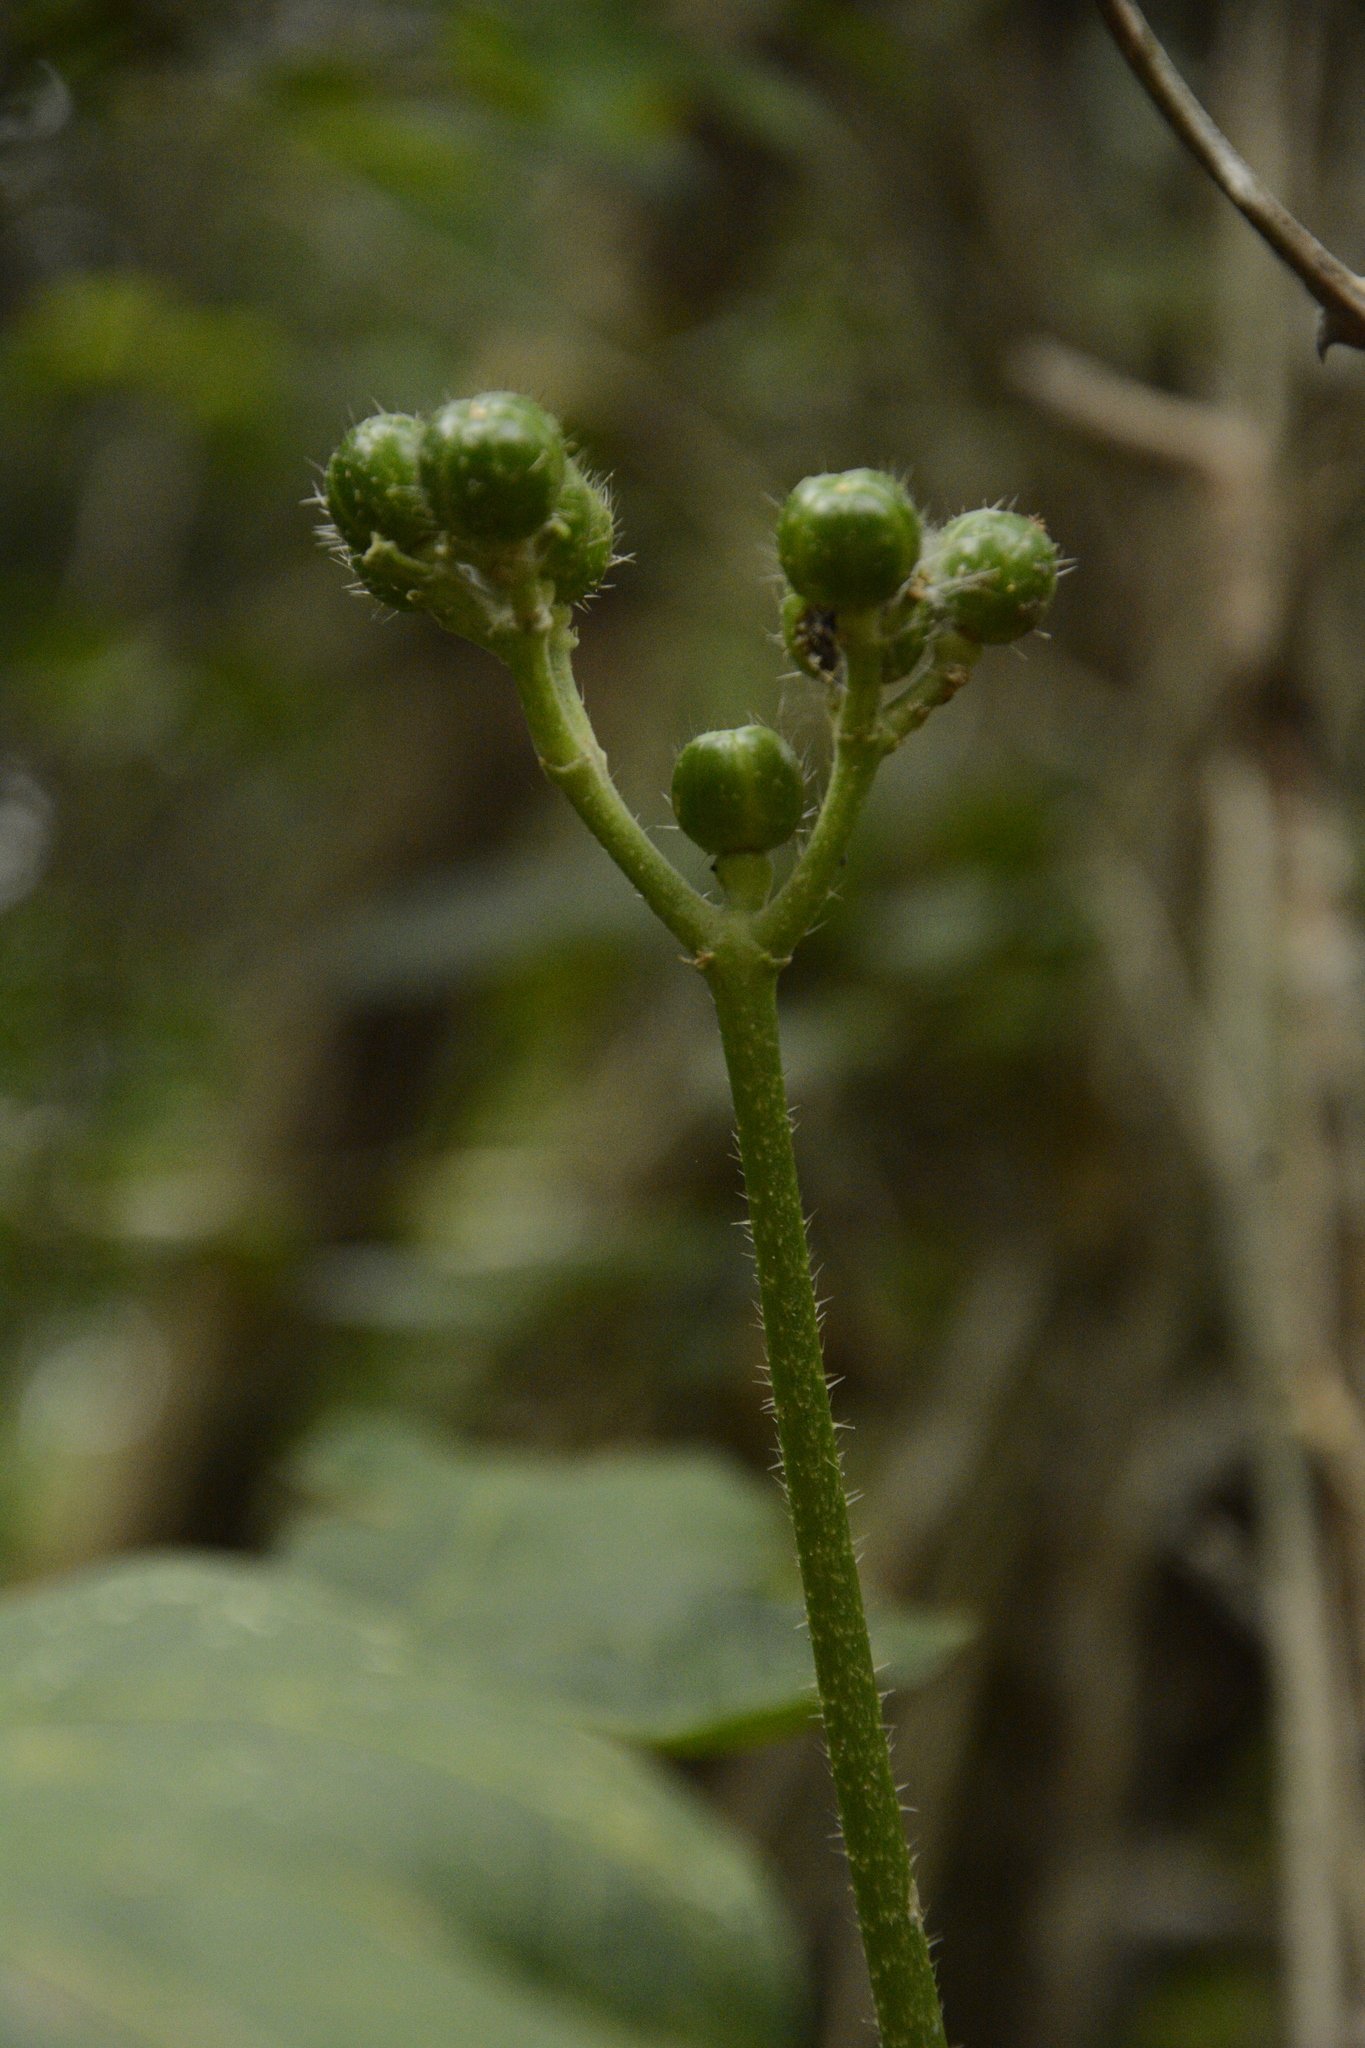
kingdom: Plantae
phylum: Tracheophyta
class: Magnoliopsida
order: Malpighiales
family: Euphorbiaceae
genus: Cnidoscolus
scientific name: Cnidoscolus aconitifolius
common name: Cabbage-star
